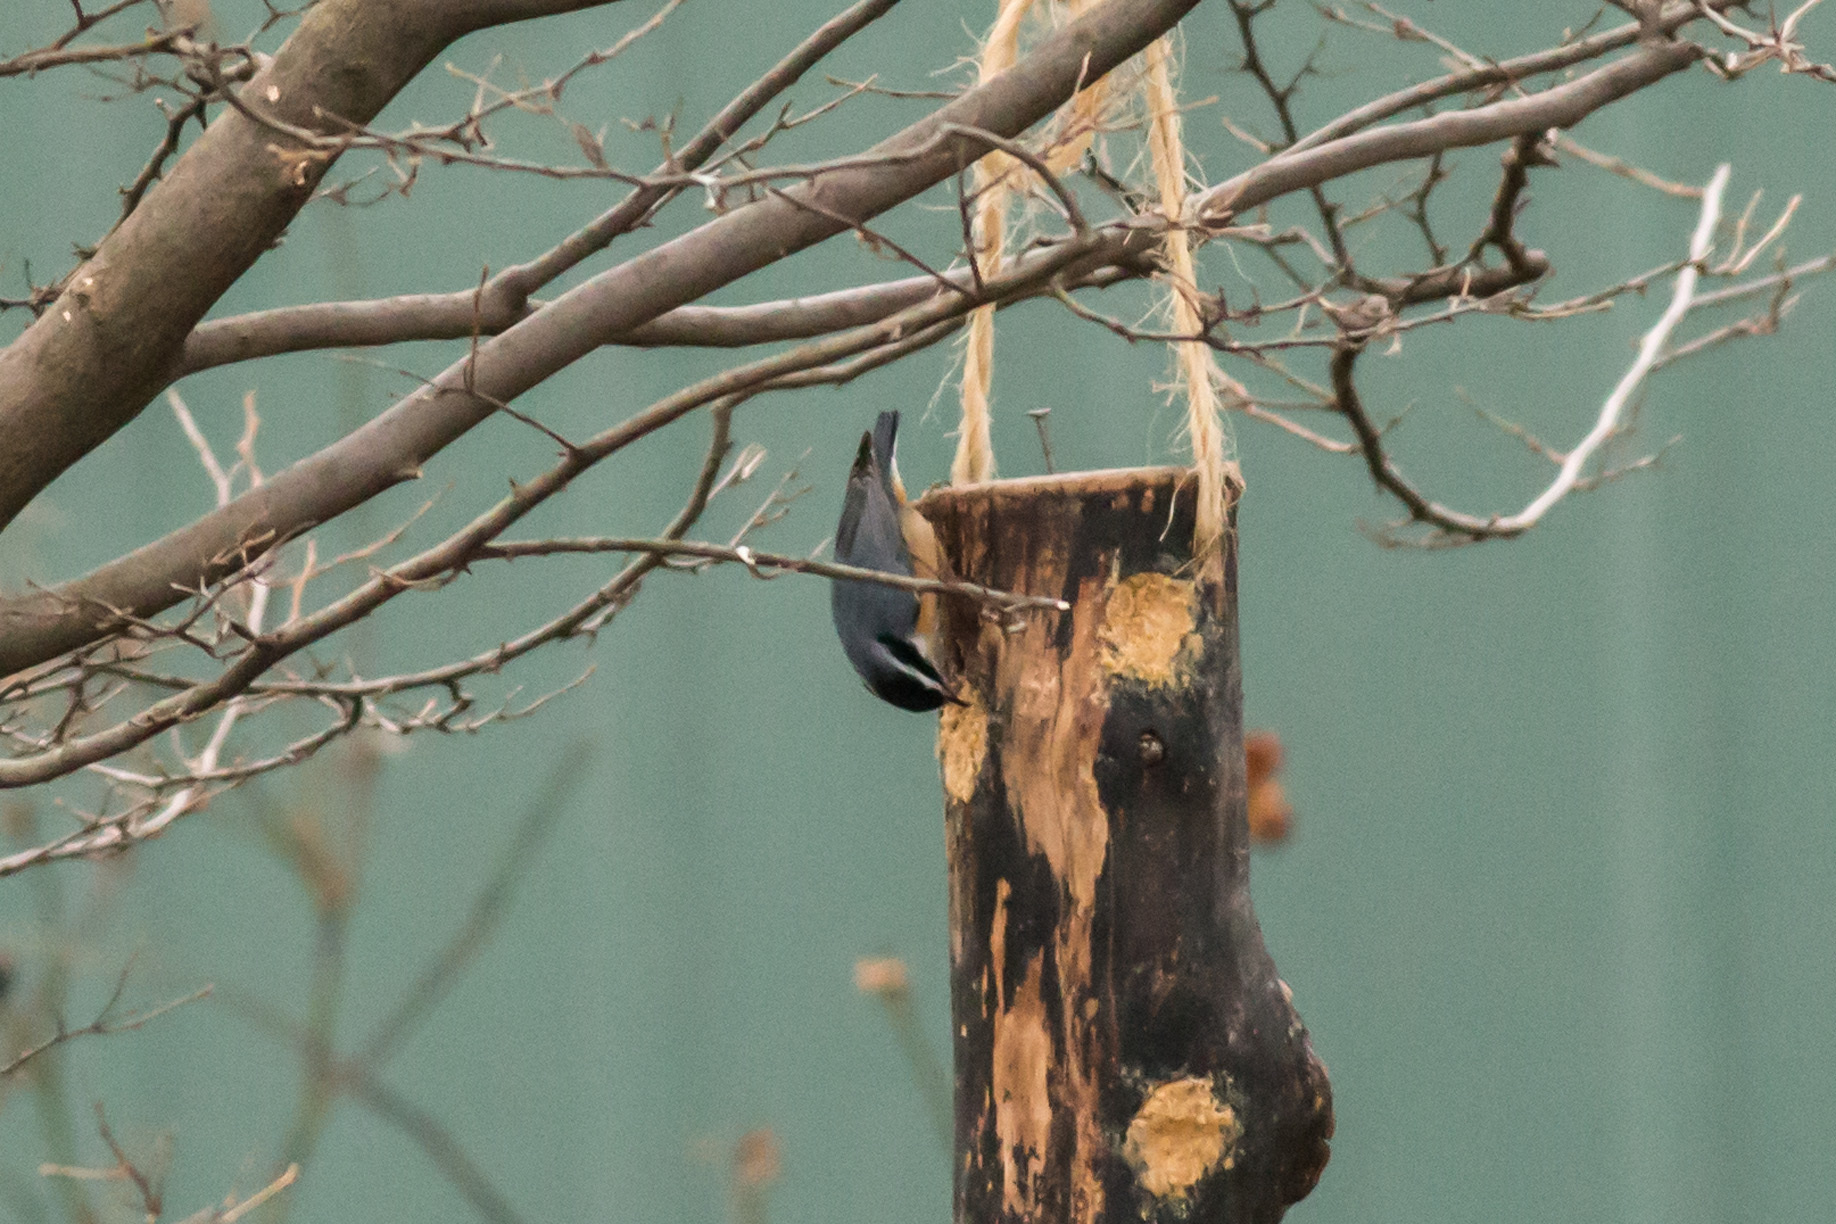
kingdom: Animalia
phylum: Chordata
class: Aves
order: Passeriformes
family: Sittidae
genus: Sitta
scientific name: Sitta canadensis
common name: Red-breasted nuthatch
